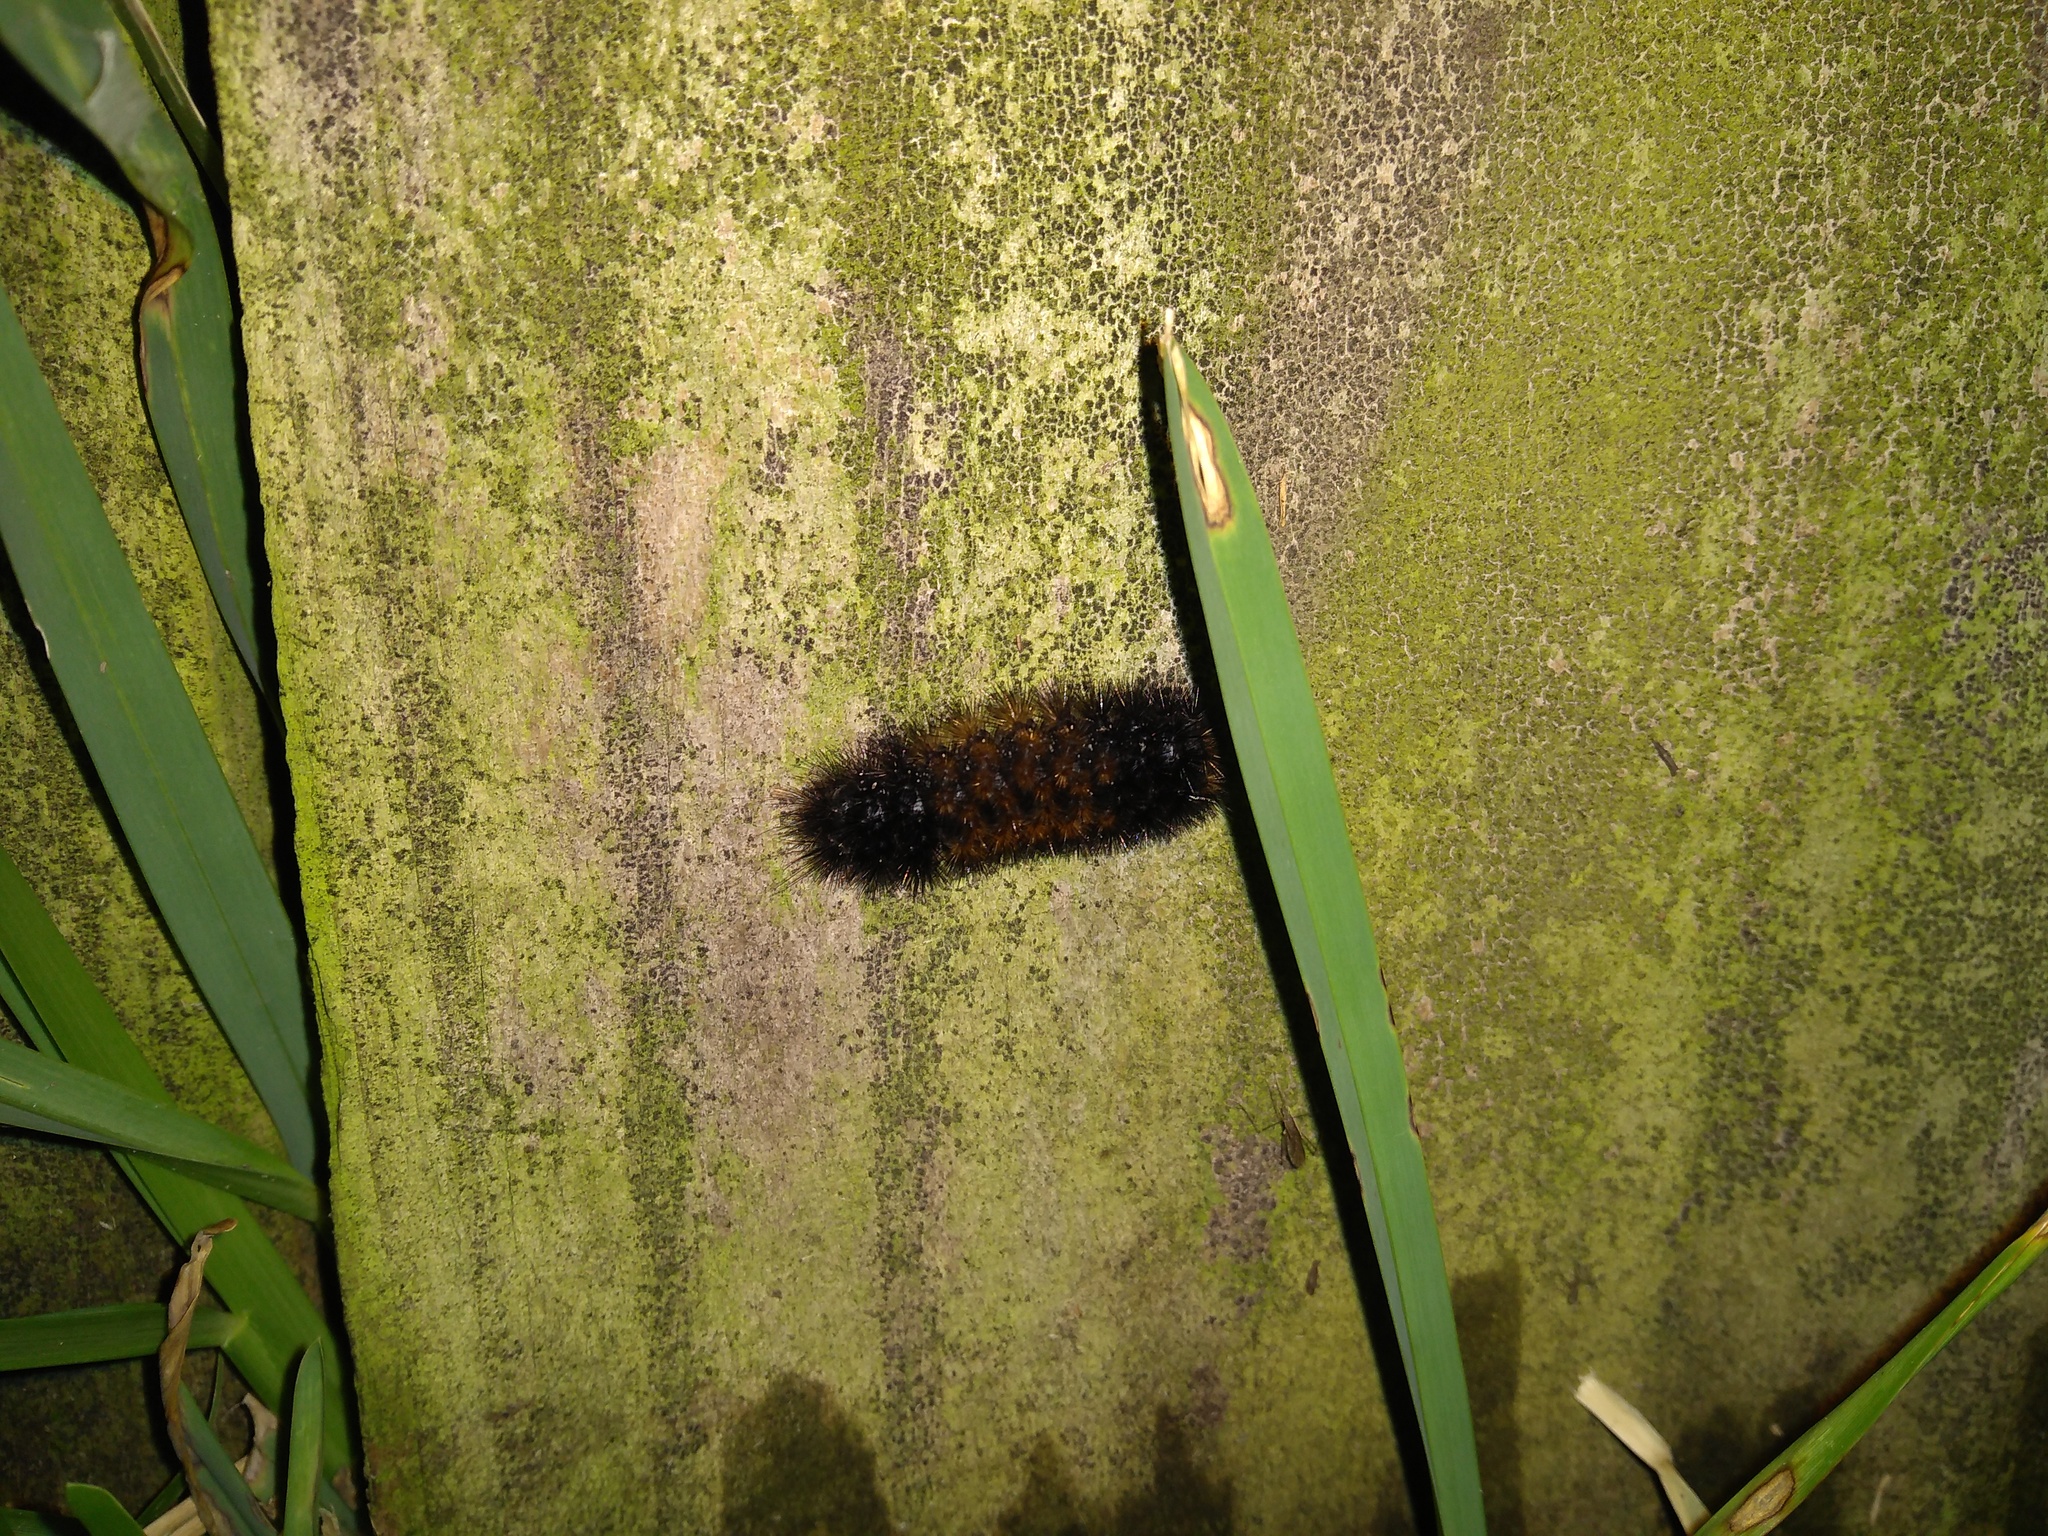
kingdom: Animalia
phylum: Arthropoda
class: Insecta
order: Lepidoptera
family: Erebidae
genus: Pyrrharctia
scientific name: Pyrrharctia isabella
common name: Isabella tiger moth
